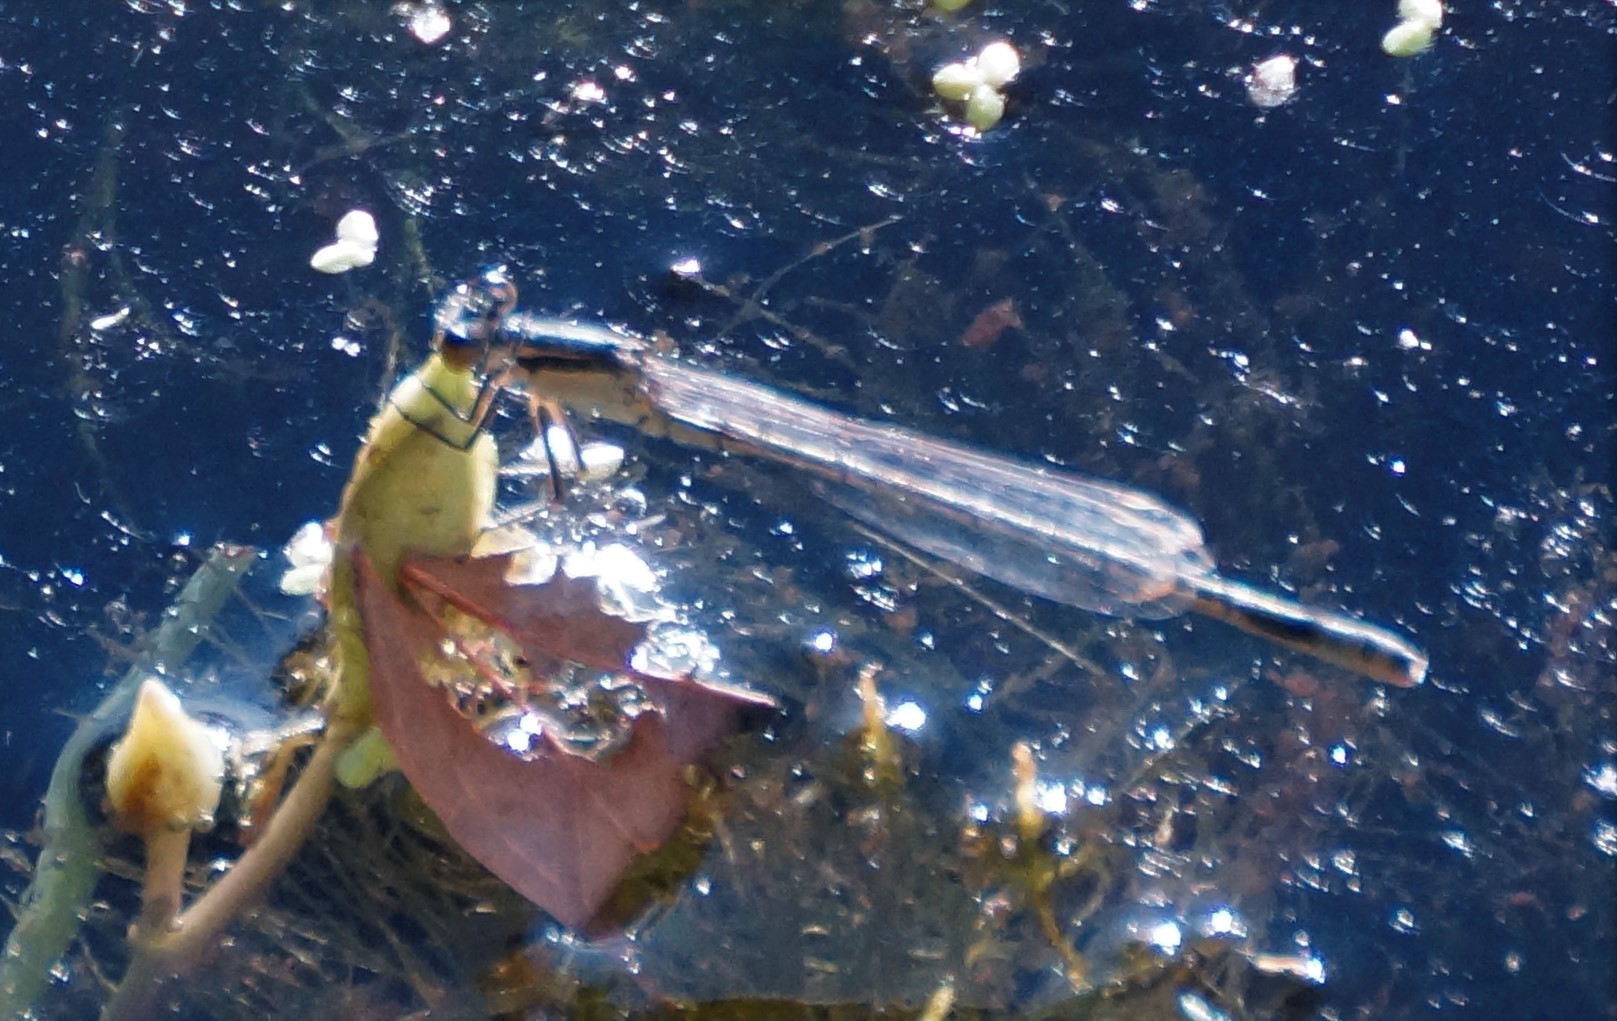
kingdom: Animalia
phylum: Arthropoda
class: Insecta
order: Odonata
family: Coenagrionidae
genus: Ischnura
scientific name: Ischnura heterosticta
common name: Common bluetail
